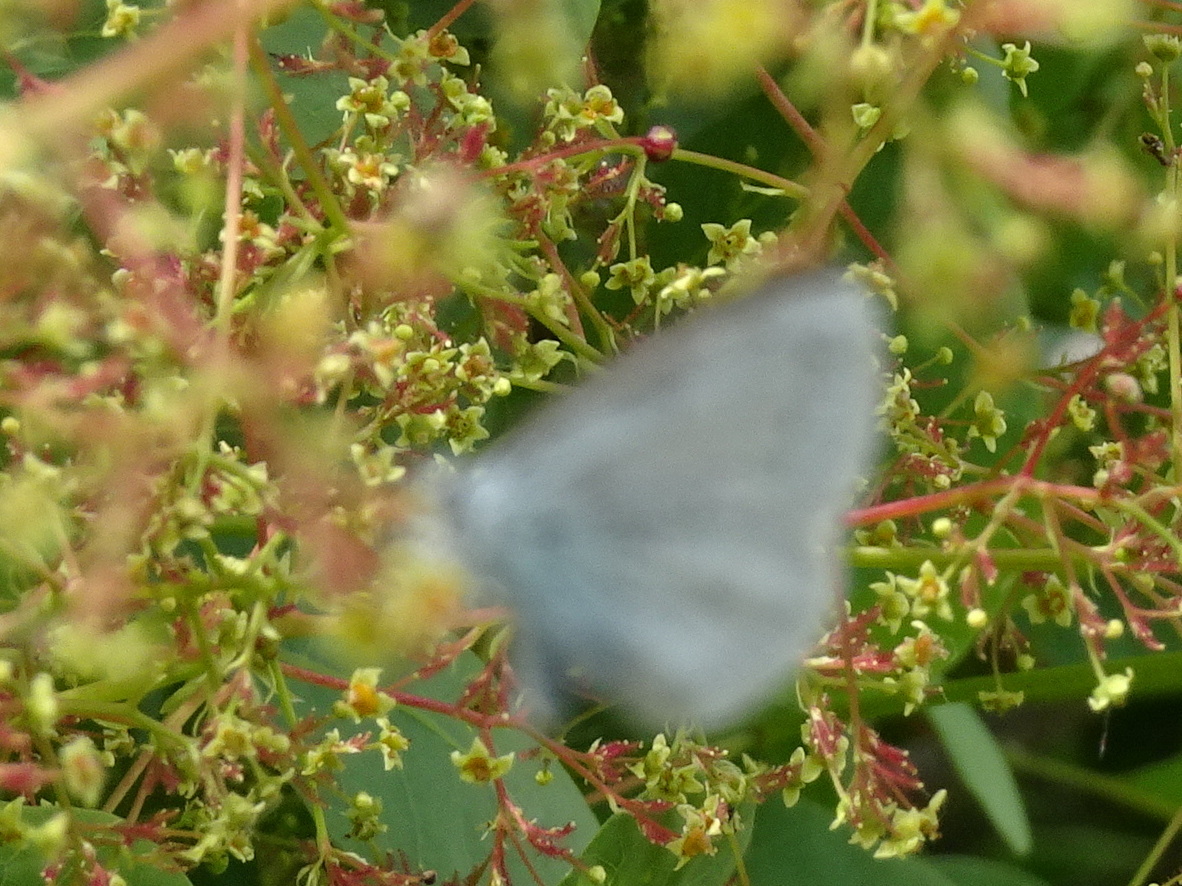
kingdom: Animalia
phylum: Arthropoda
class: Insecta
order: Lepidoptera
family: Lycaenidae
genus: Celastrina
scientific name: Celastrina argiolus
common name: Holly blue
